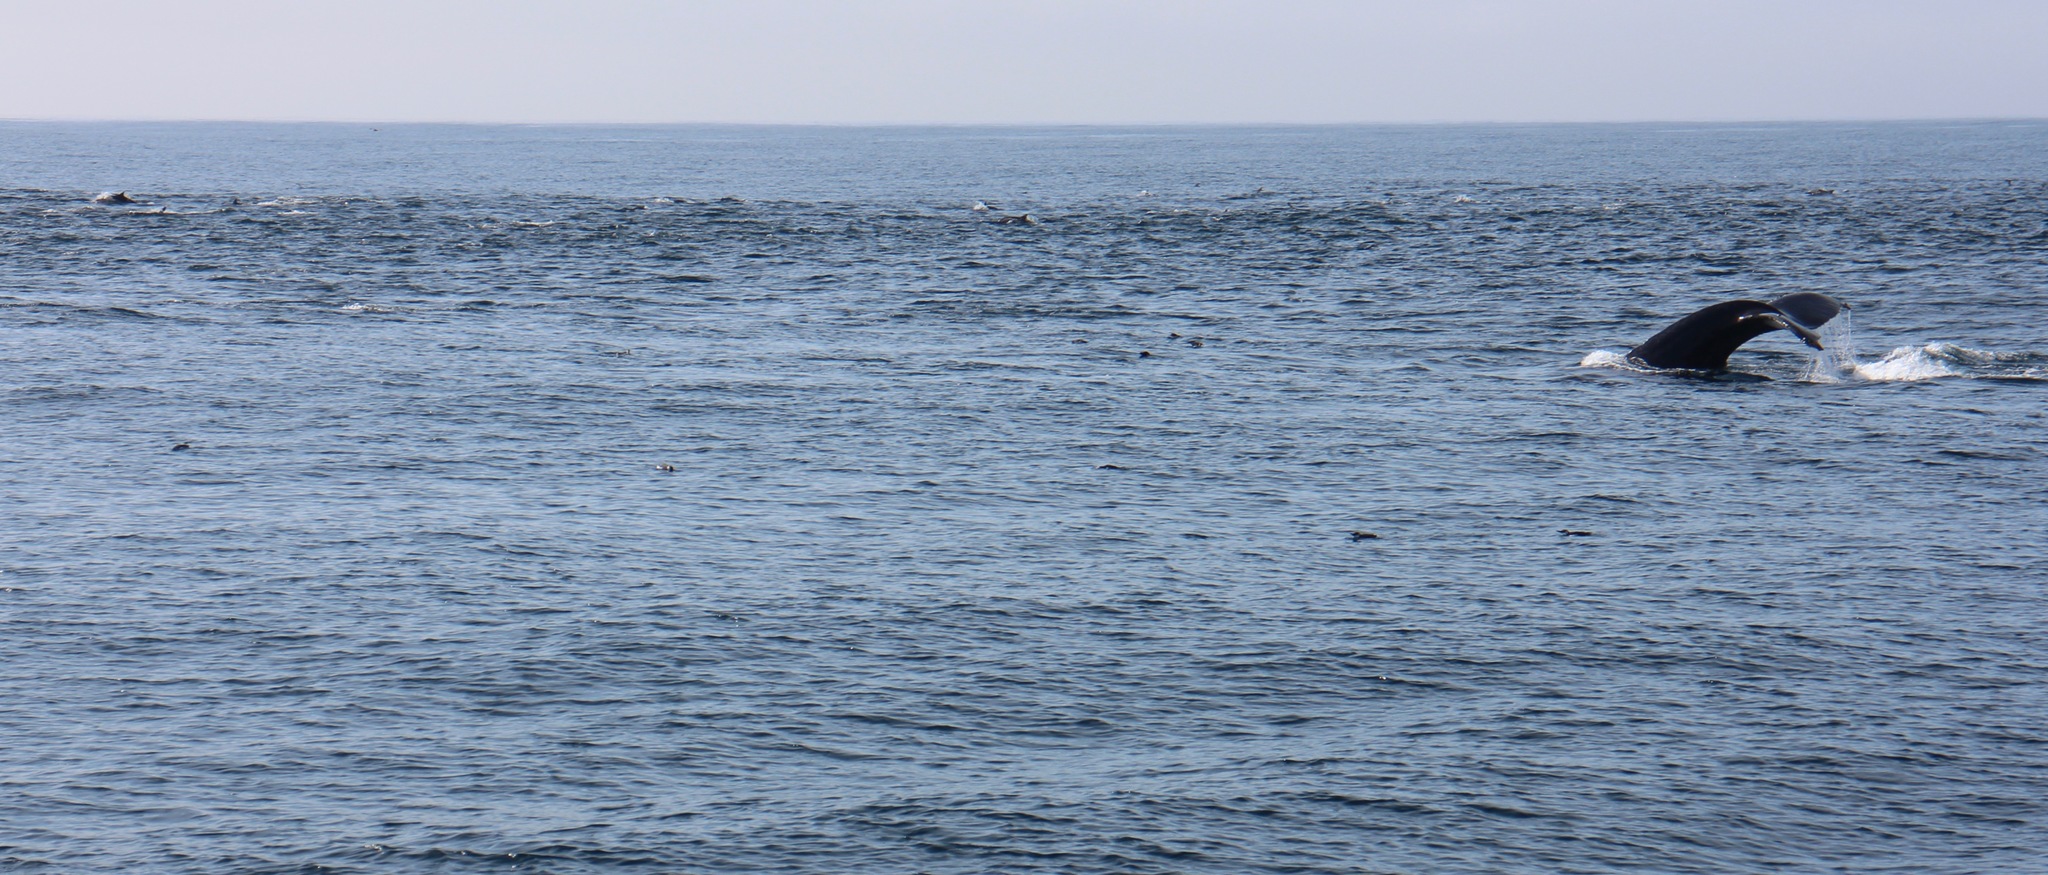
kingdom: Animalia
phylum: Chordata
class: Mammalia
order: Cetacea
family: Balaenopteridae
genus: Megaptera
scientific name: Megaptera novaeangliae
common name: Humpback whale
